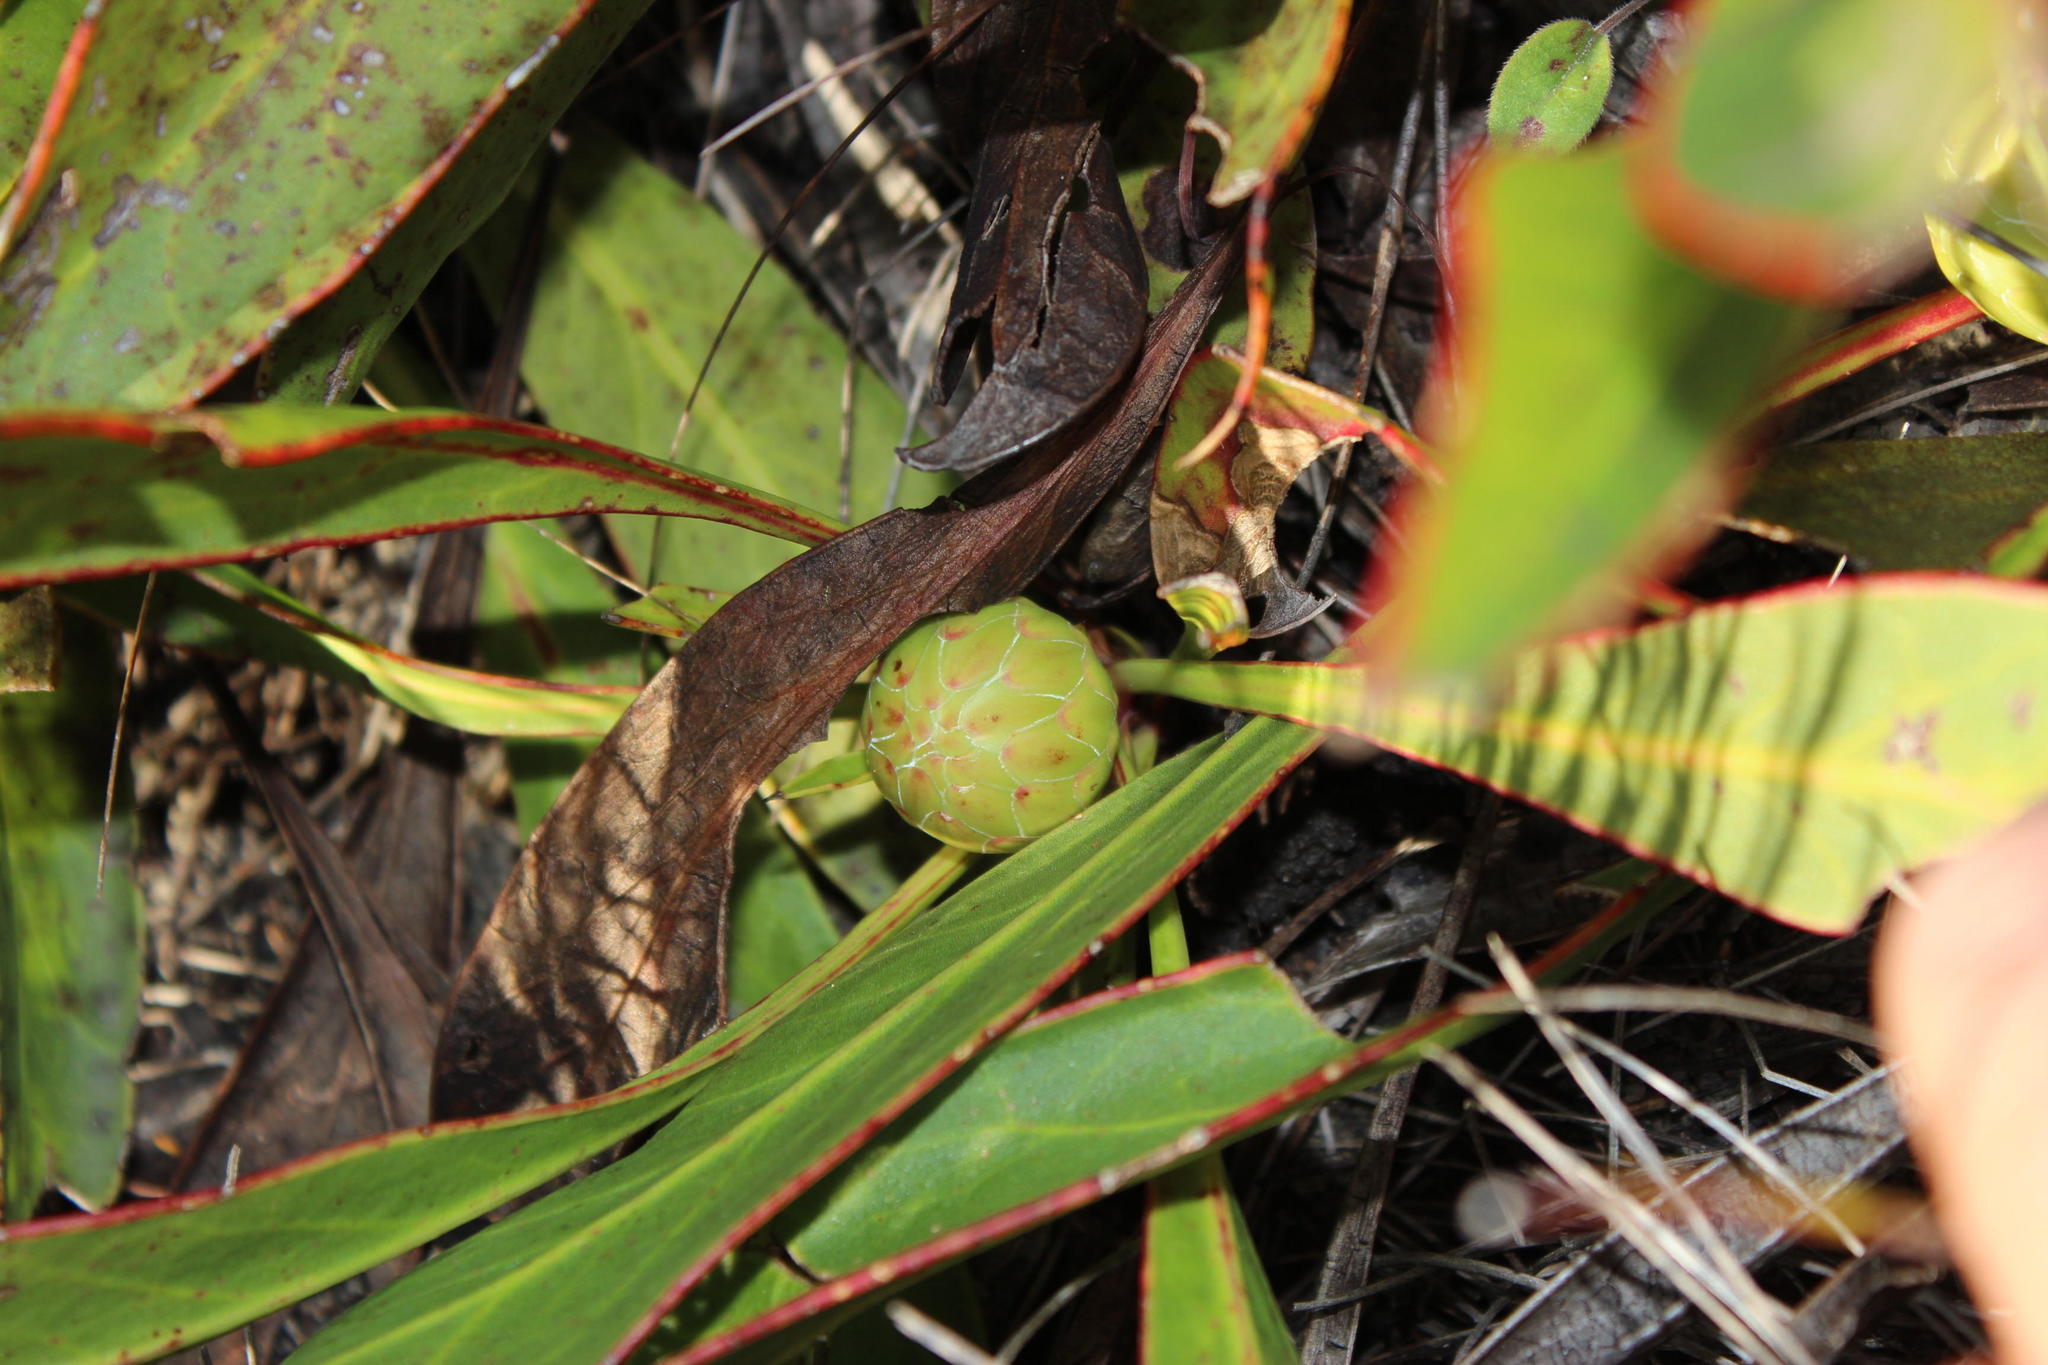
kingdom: Plantae
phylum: Tracheophyta
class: Magnoliopsida
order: Proteales
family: Proteaceae
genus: Protea
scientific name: Protea acaulos
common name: Common ground sugarbush
